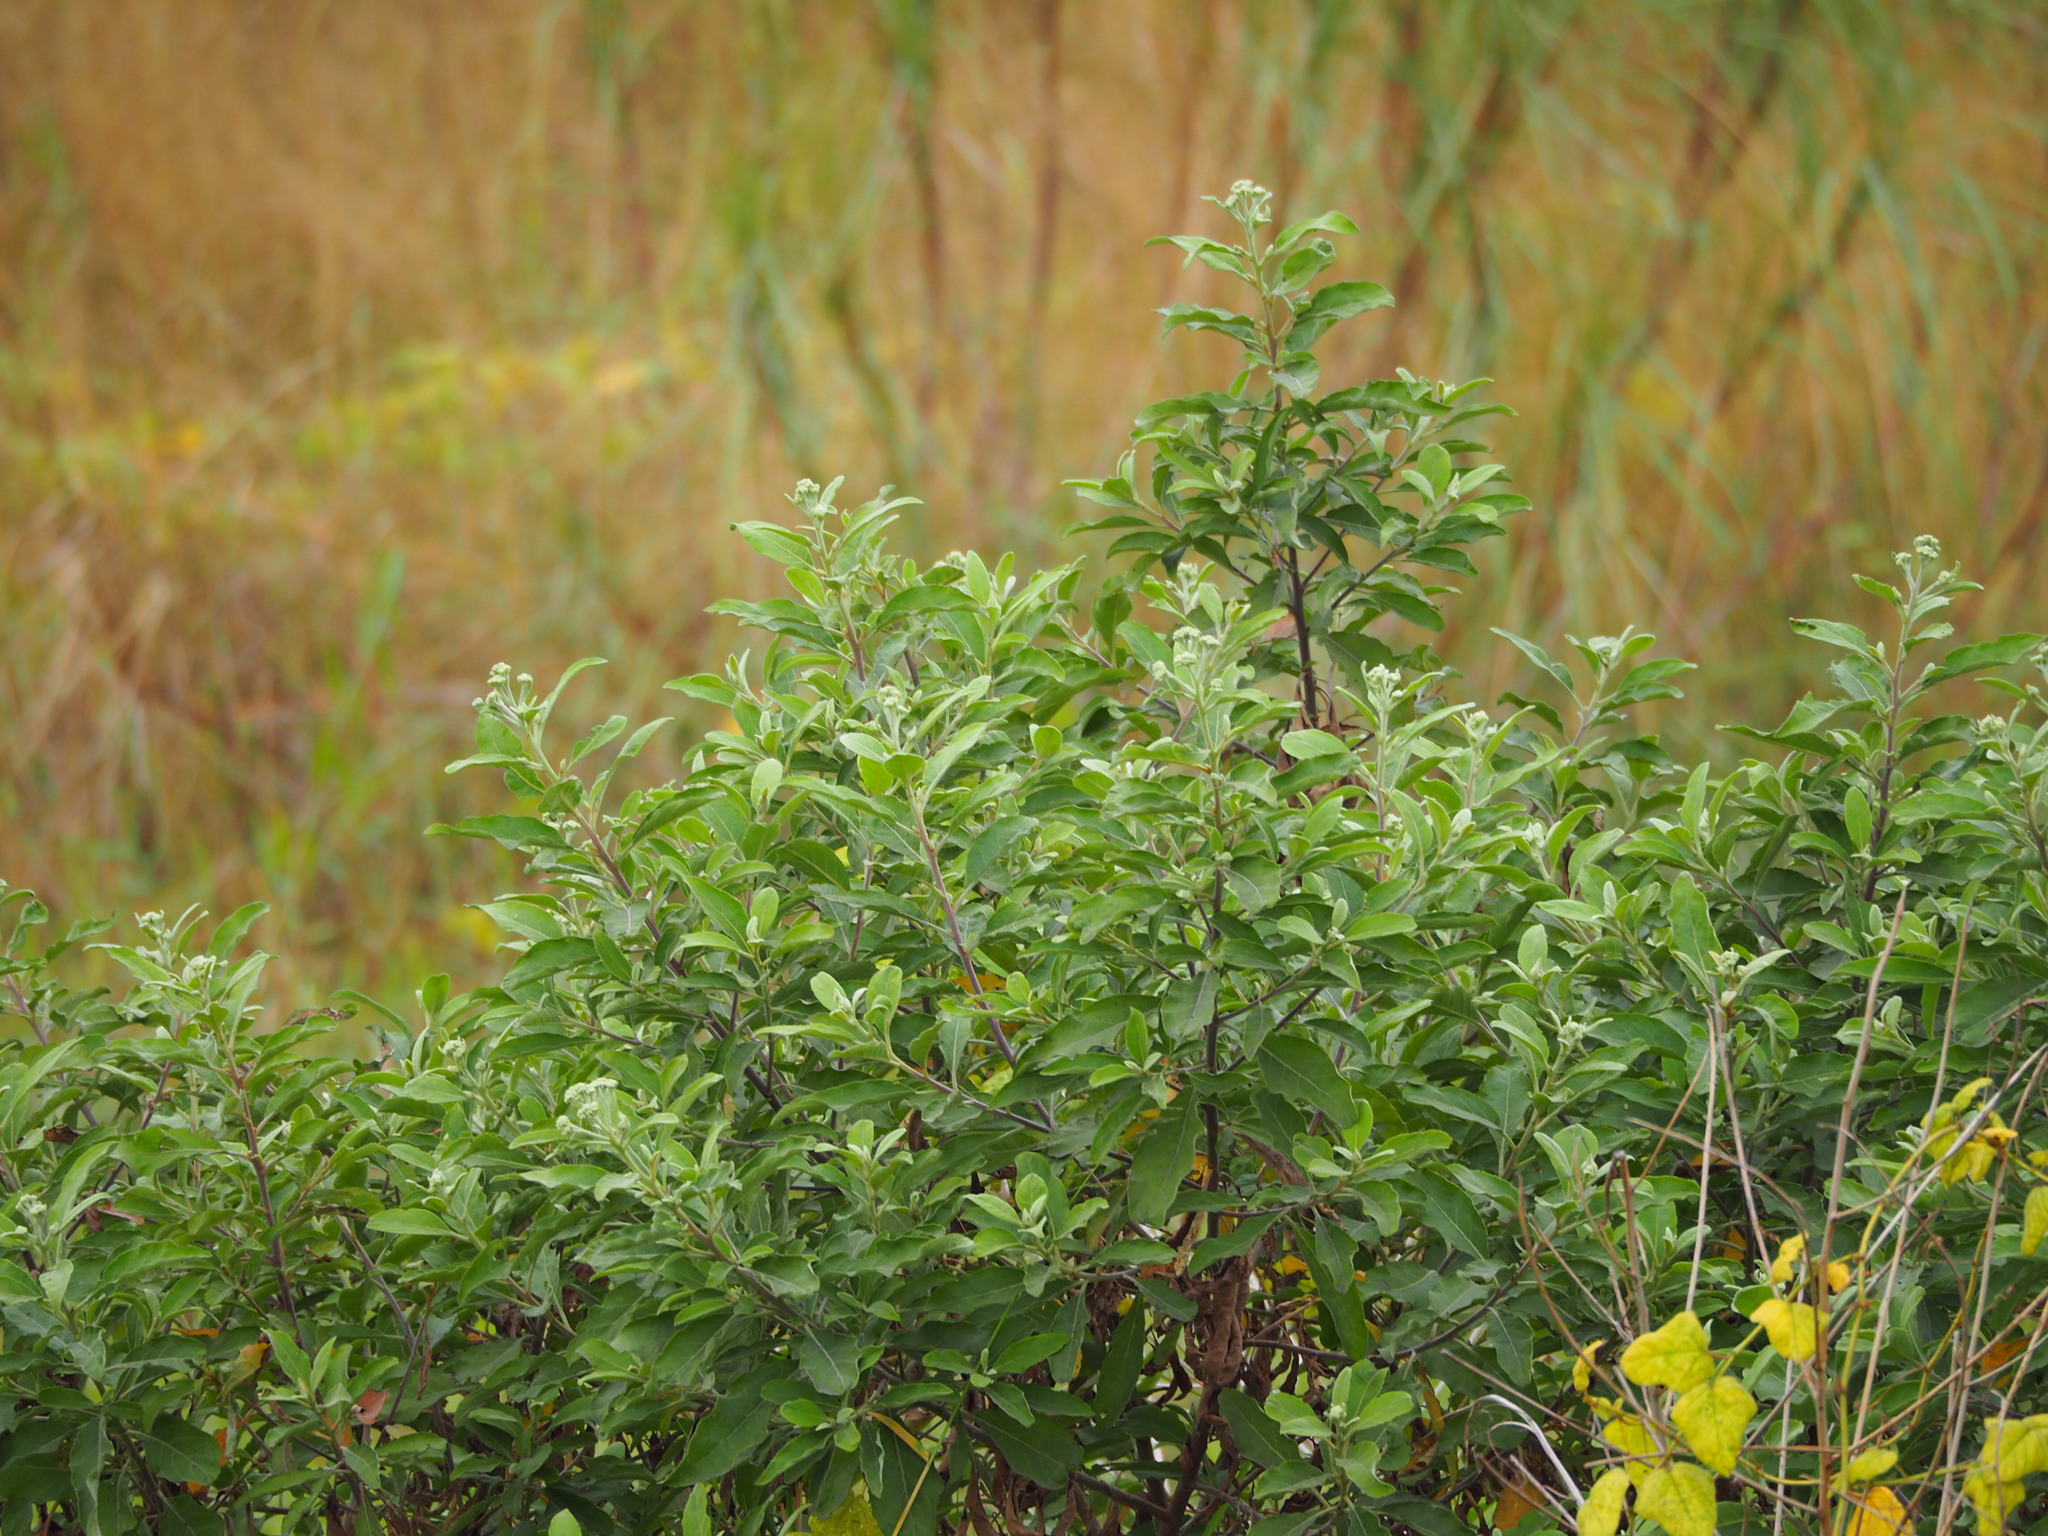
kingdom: Plantae
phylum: Tracheophyta
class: Magnoliopsida
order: Asterales
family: Asteraceae
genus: Pluchea
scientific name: Pluchea carolinensis
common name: Marsh fleabane
